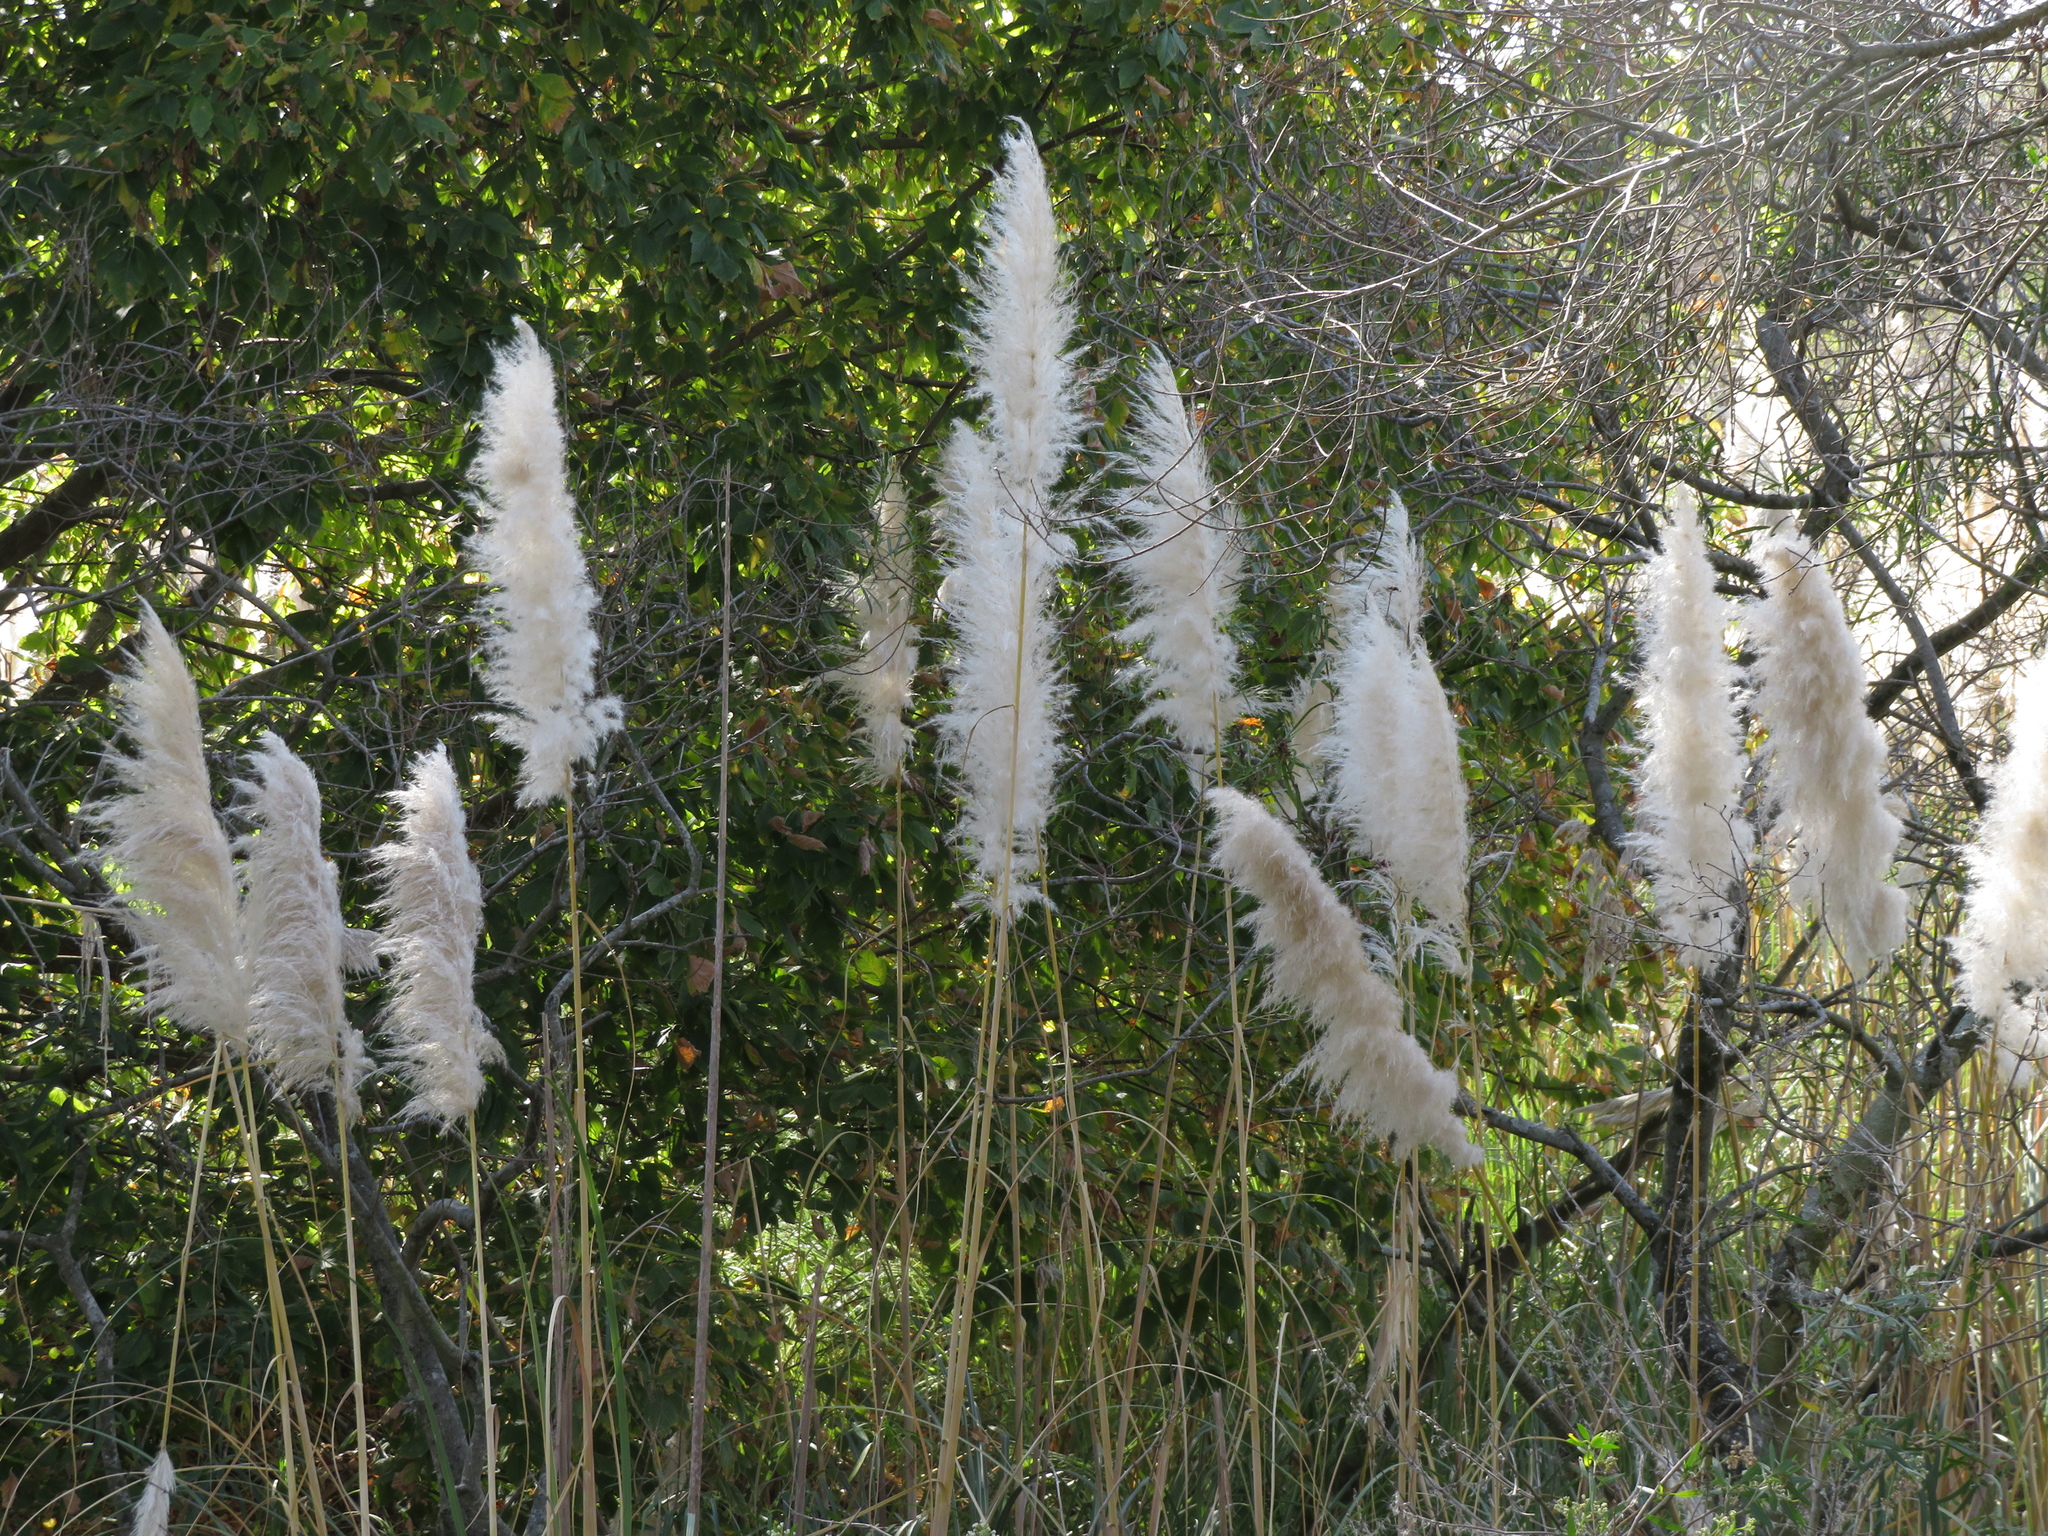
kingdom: Plantae
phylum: Tracheophyta
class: Liliopsida
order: Poales
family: Poaceae
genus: Cortaderia
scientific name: Cortaderia selloana
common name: Uruguayan pampas grass
